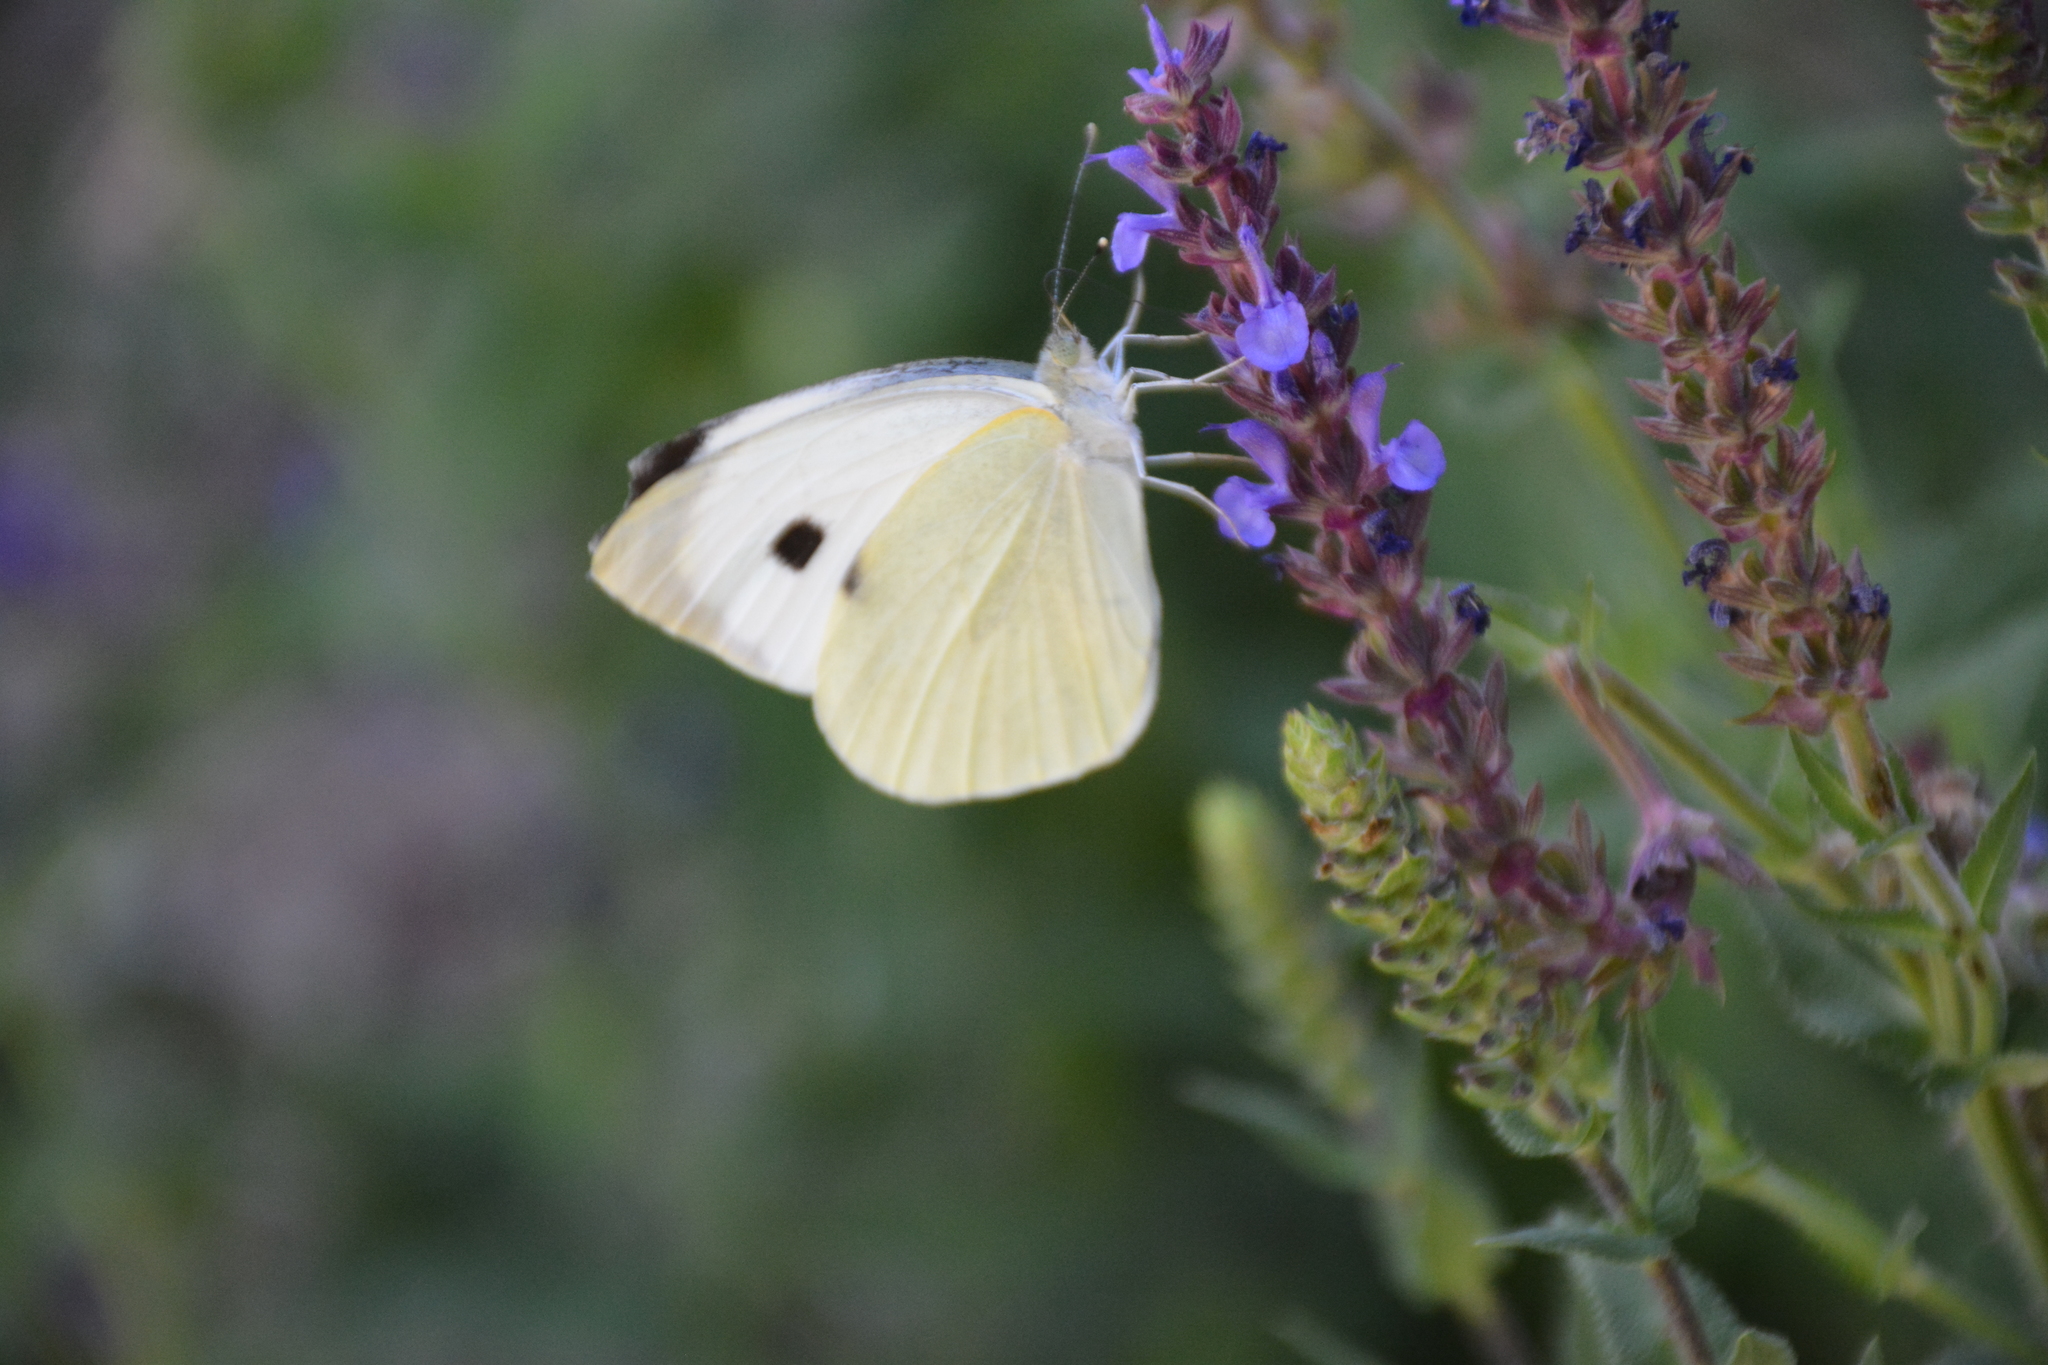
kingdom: Animalia
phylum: Arthropoda
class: Insecta
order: Lepidoptera
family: Pieridae
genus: Pieris
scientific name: Pieris brassicae
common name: Large white
